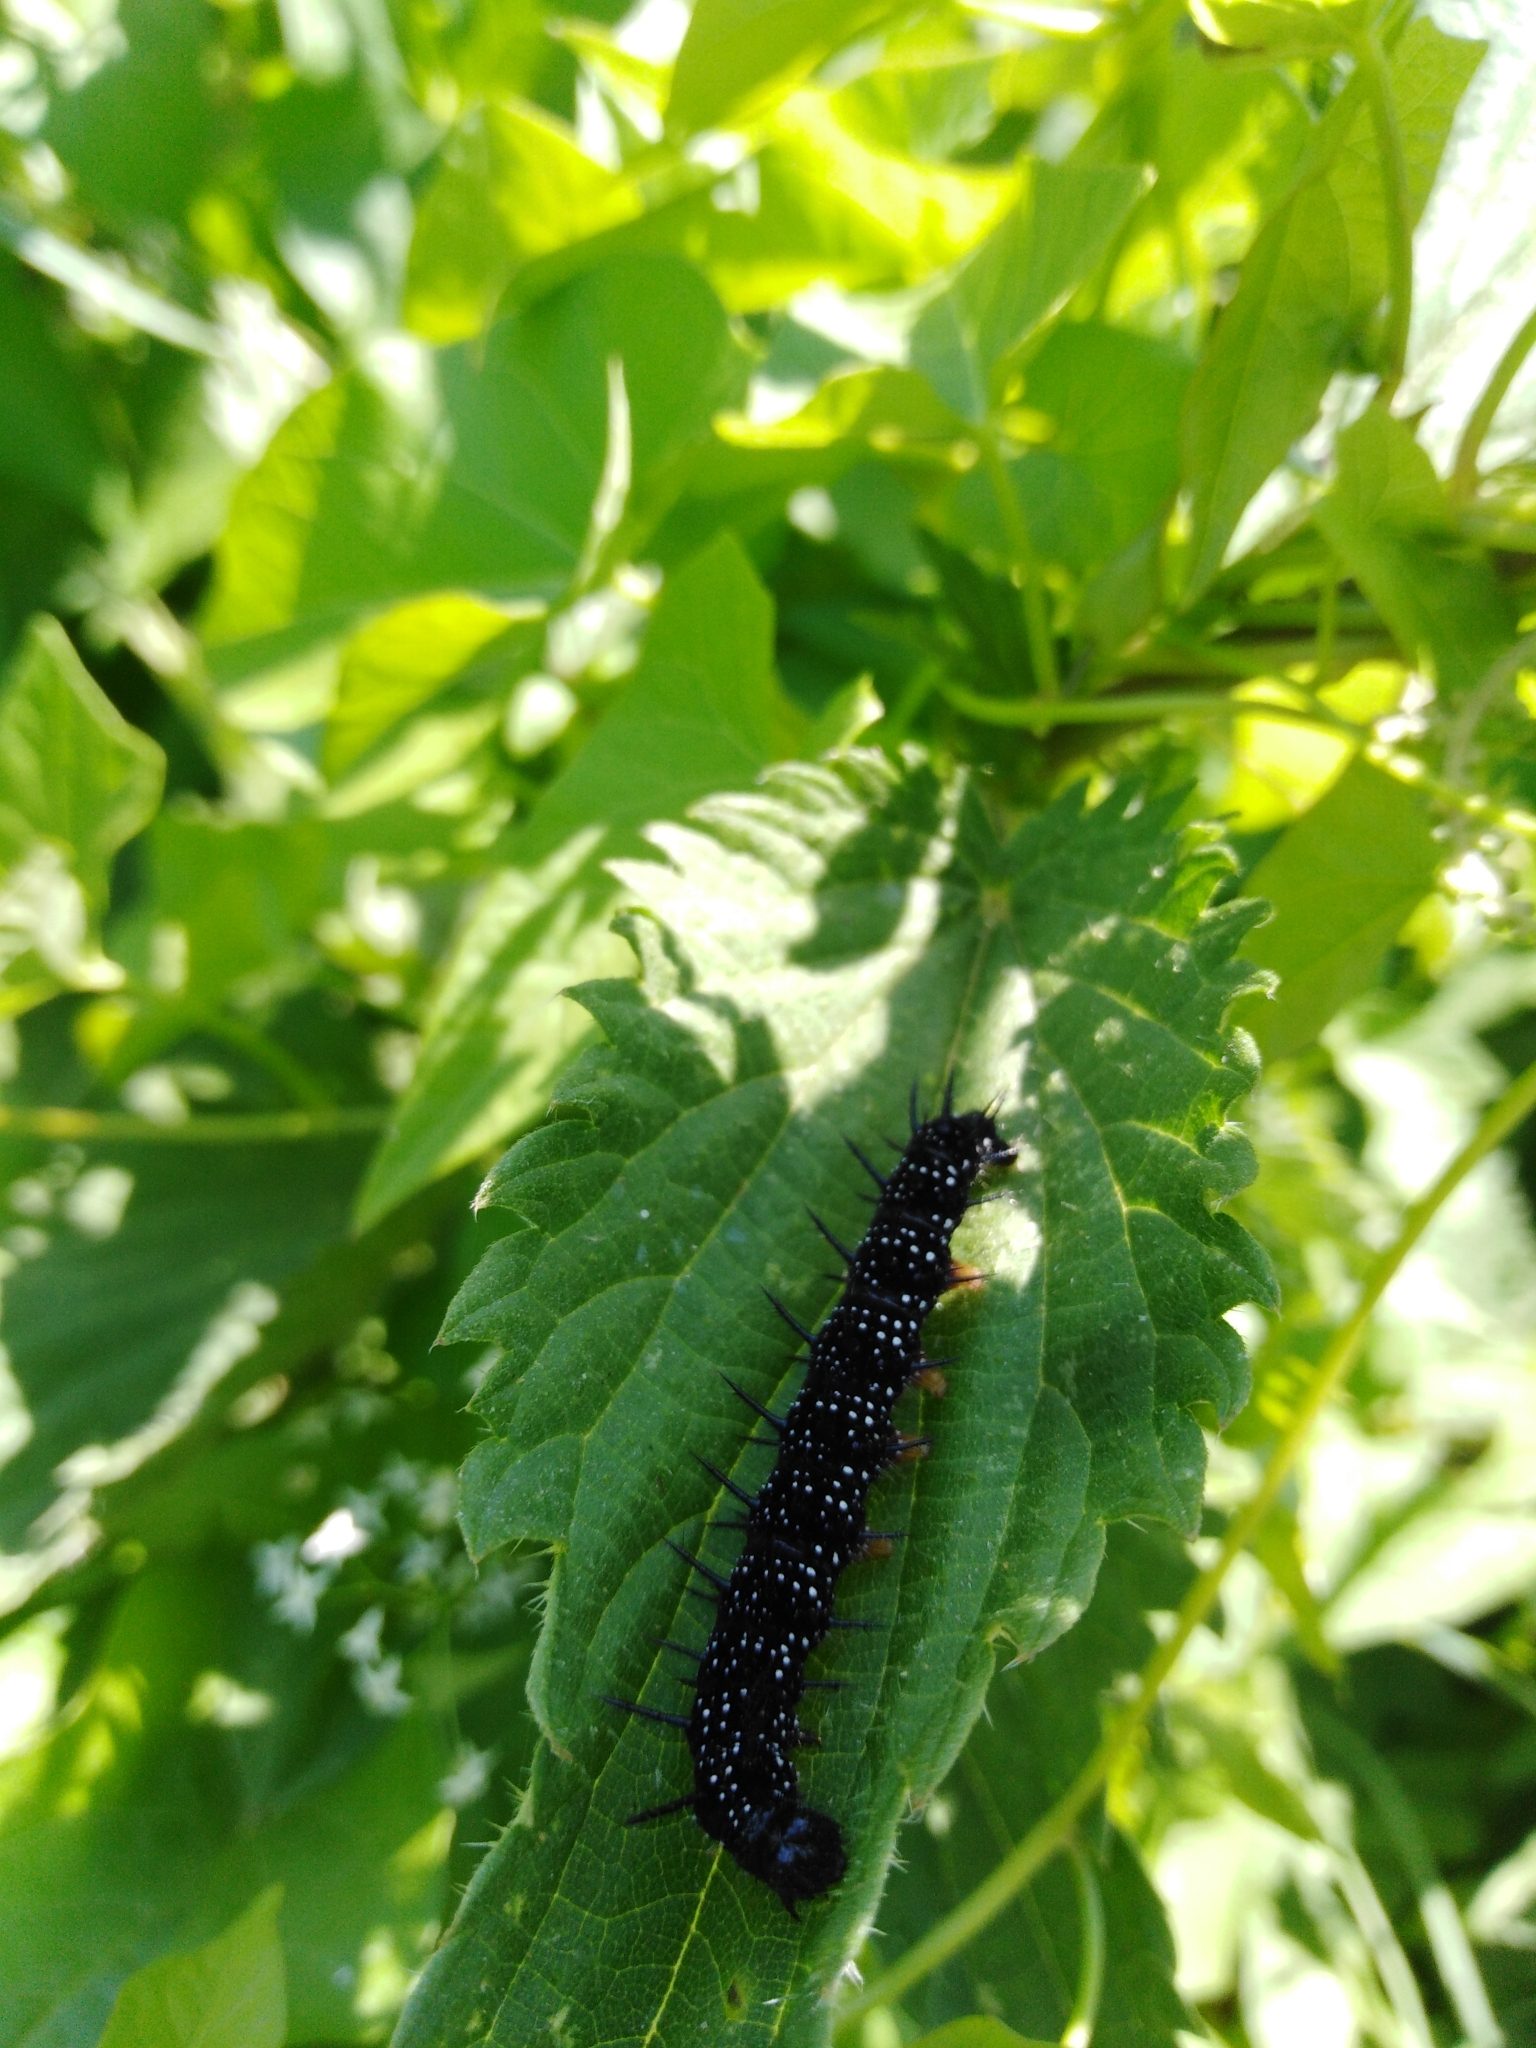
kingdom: Animalia
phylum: Arthropoda
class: Insecta
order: Lepidoptera
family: Nymphalidae
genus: Aglais
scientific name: Aglais io
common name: Peacock
